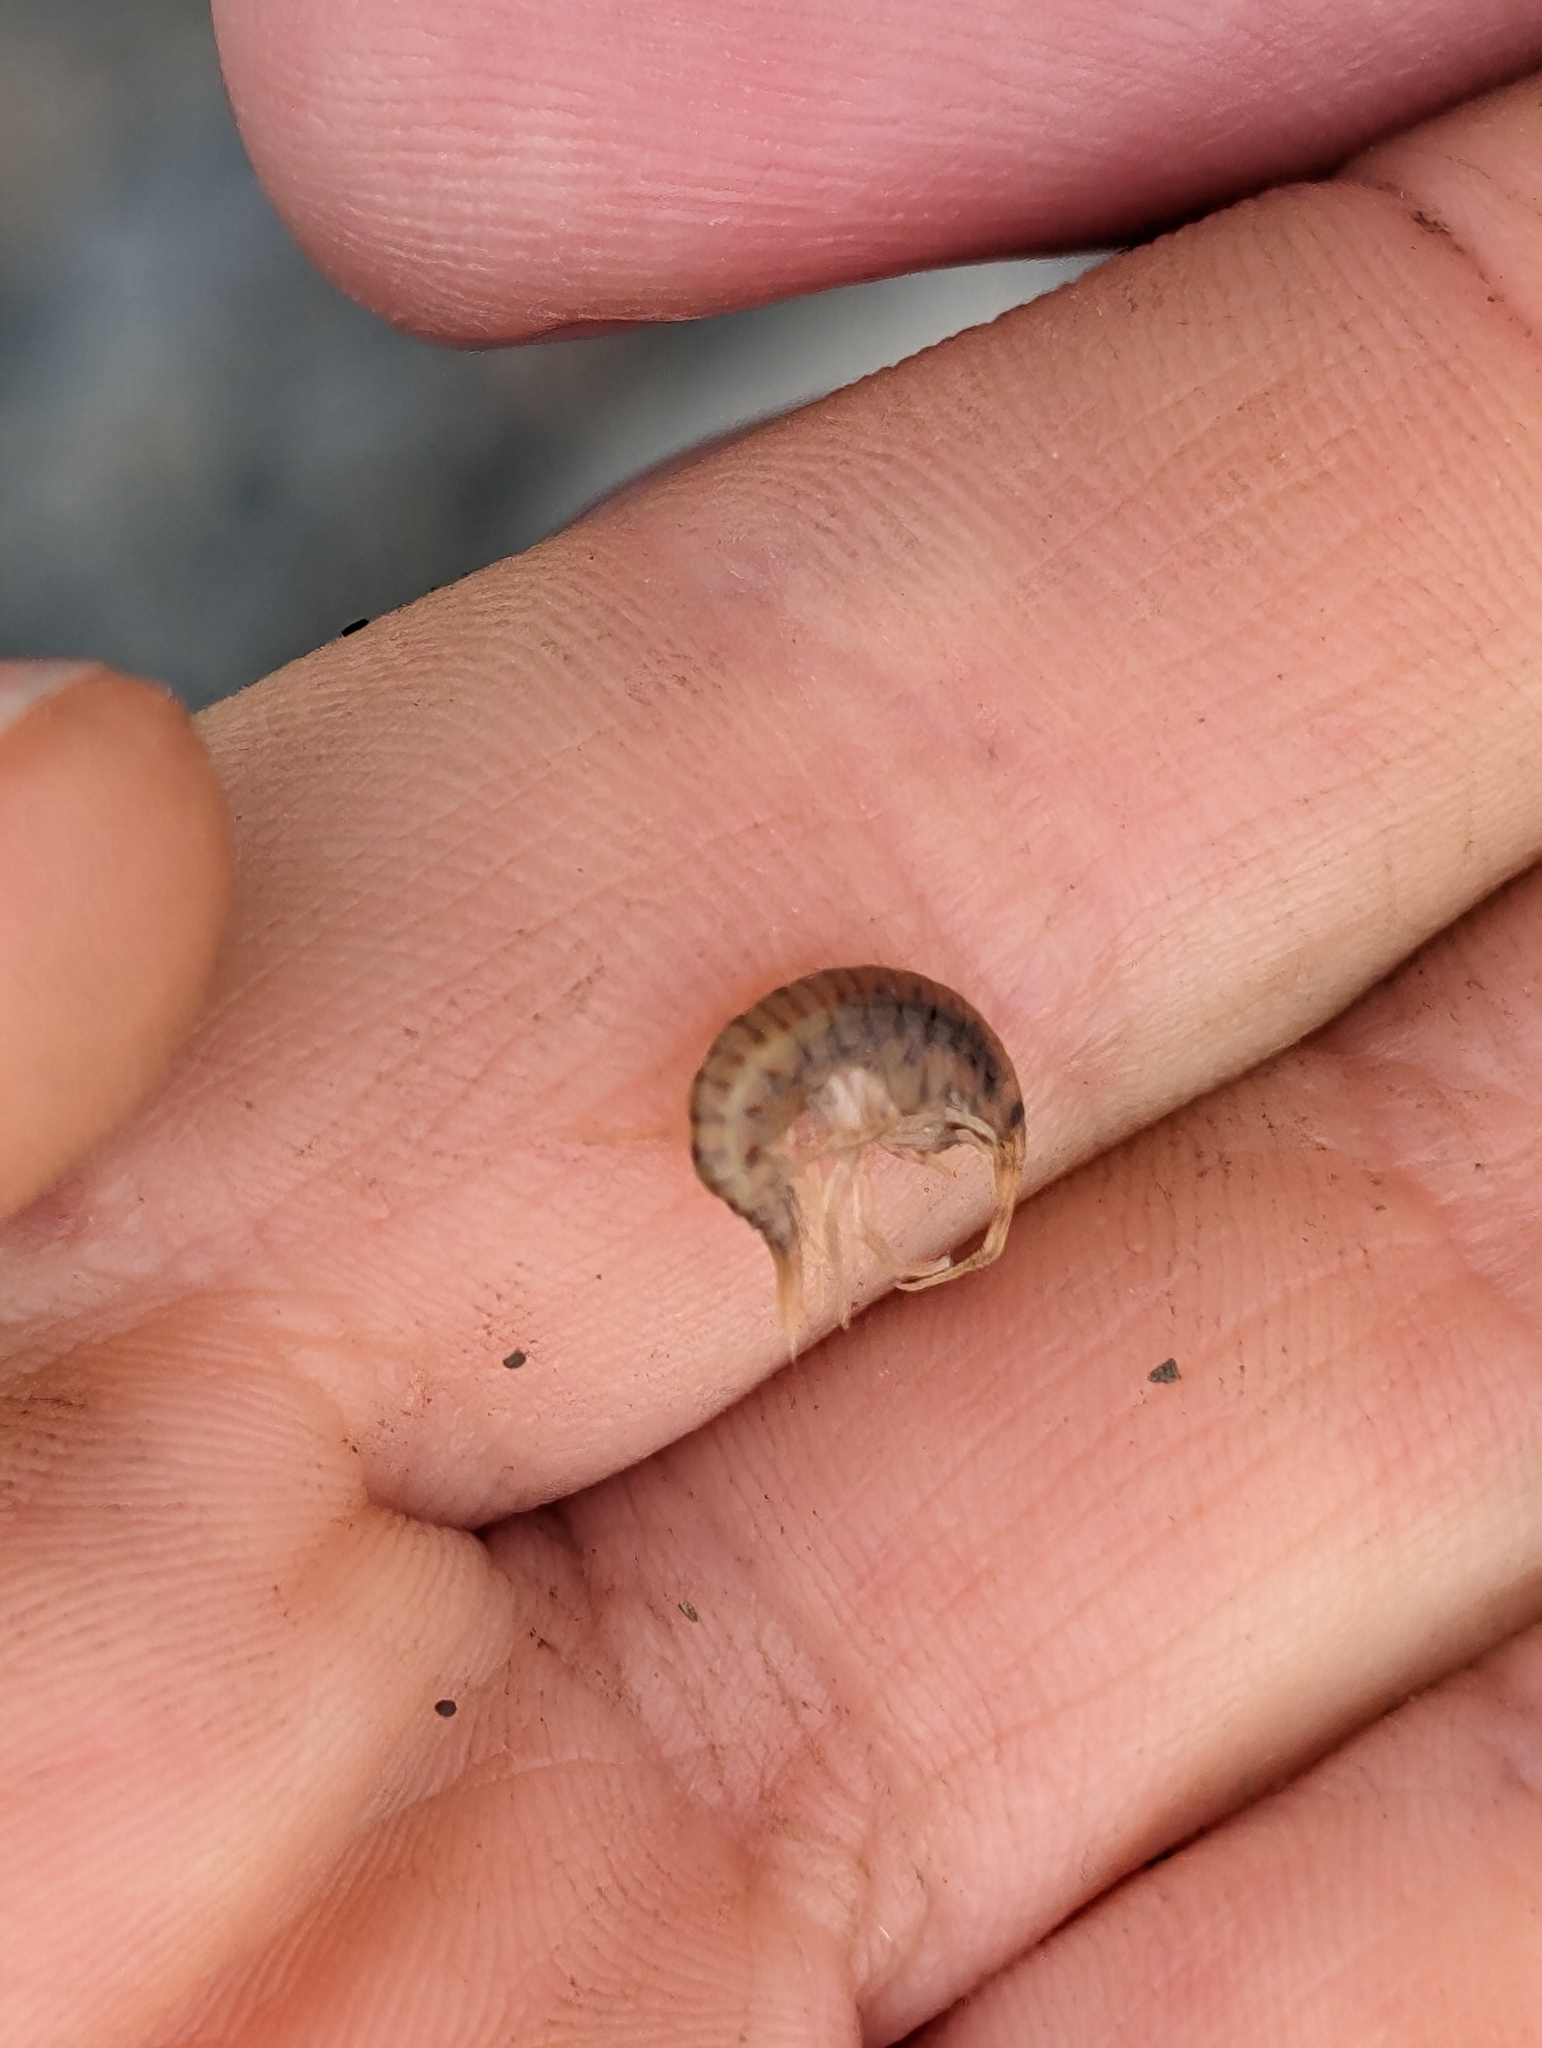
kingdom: Animalia
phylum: Arthropoda
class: Malacostraca
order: Amphipoda
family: Gammaridae
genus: Gammarus
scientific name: Gammarus fasciatus
